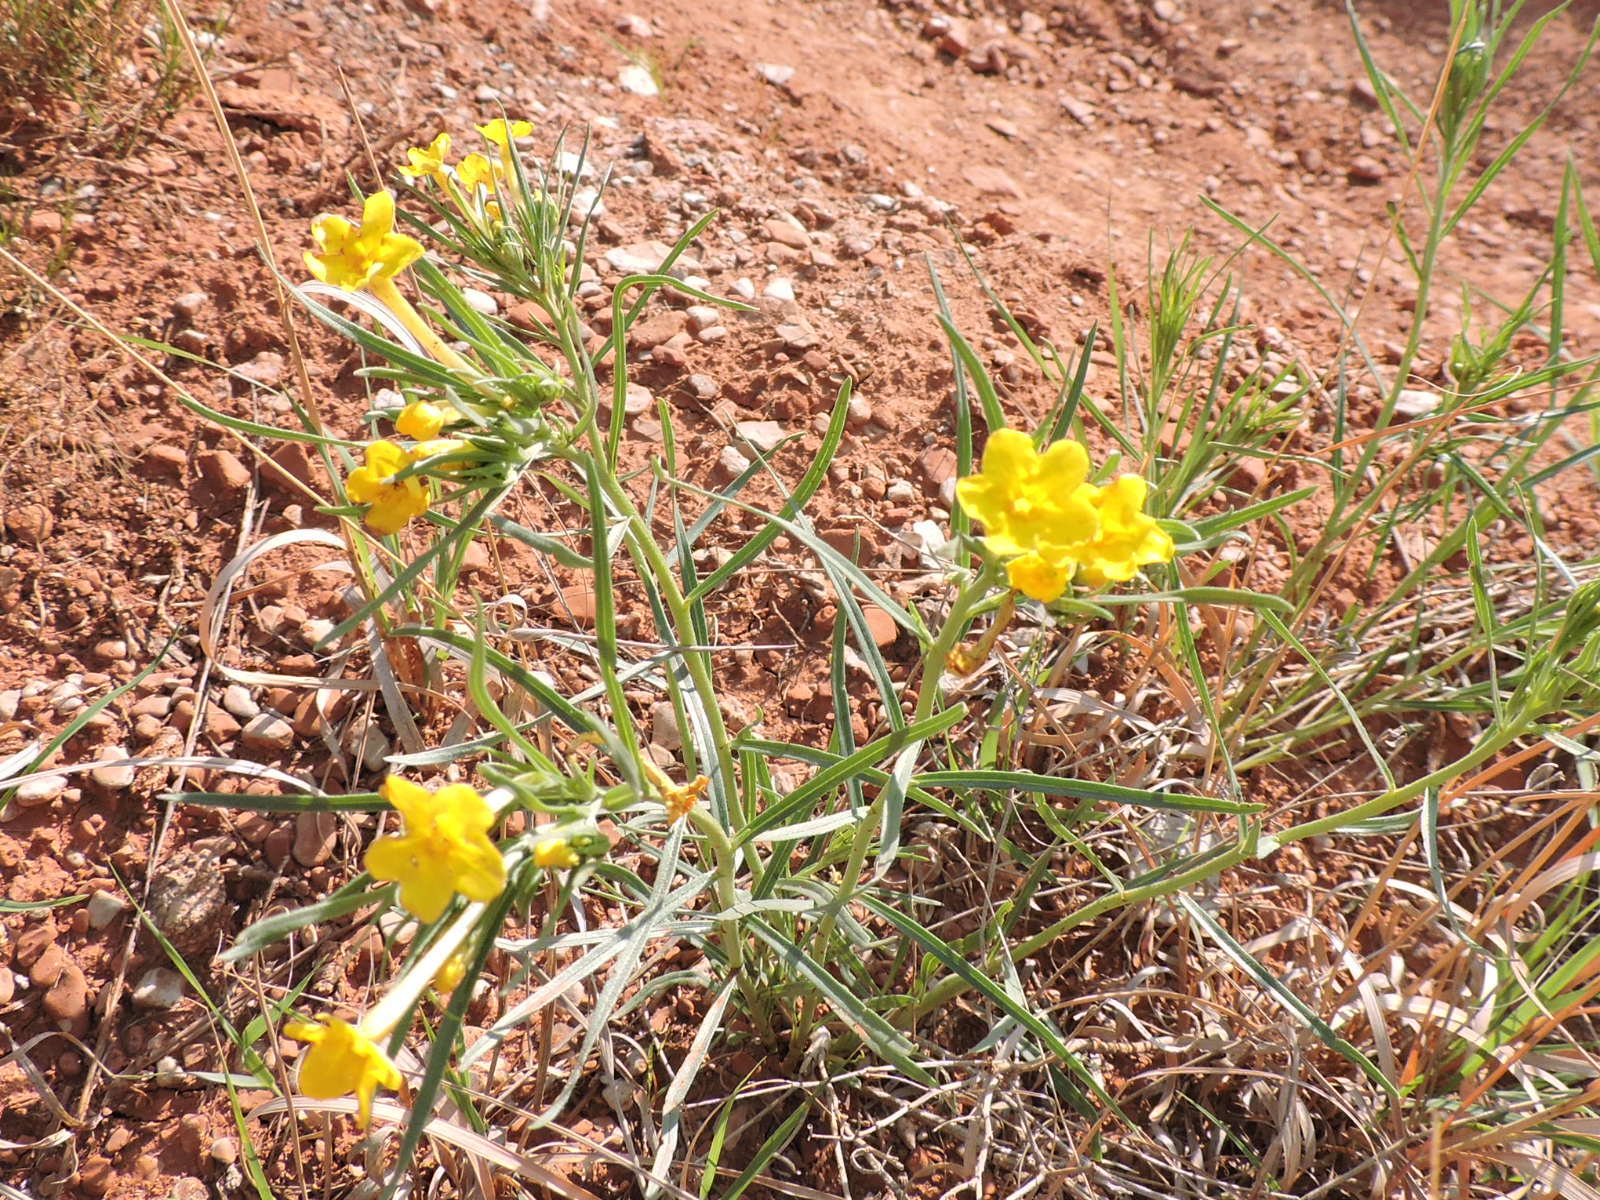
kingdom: Plantae
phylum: Tracheophyta
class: Magnoliopsida
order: Boraginales
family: Boraginaceae
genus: Lithospermum
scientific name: Lithospermum incisum
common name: Fringed gromwell
